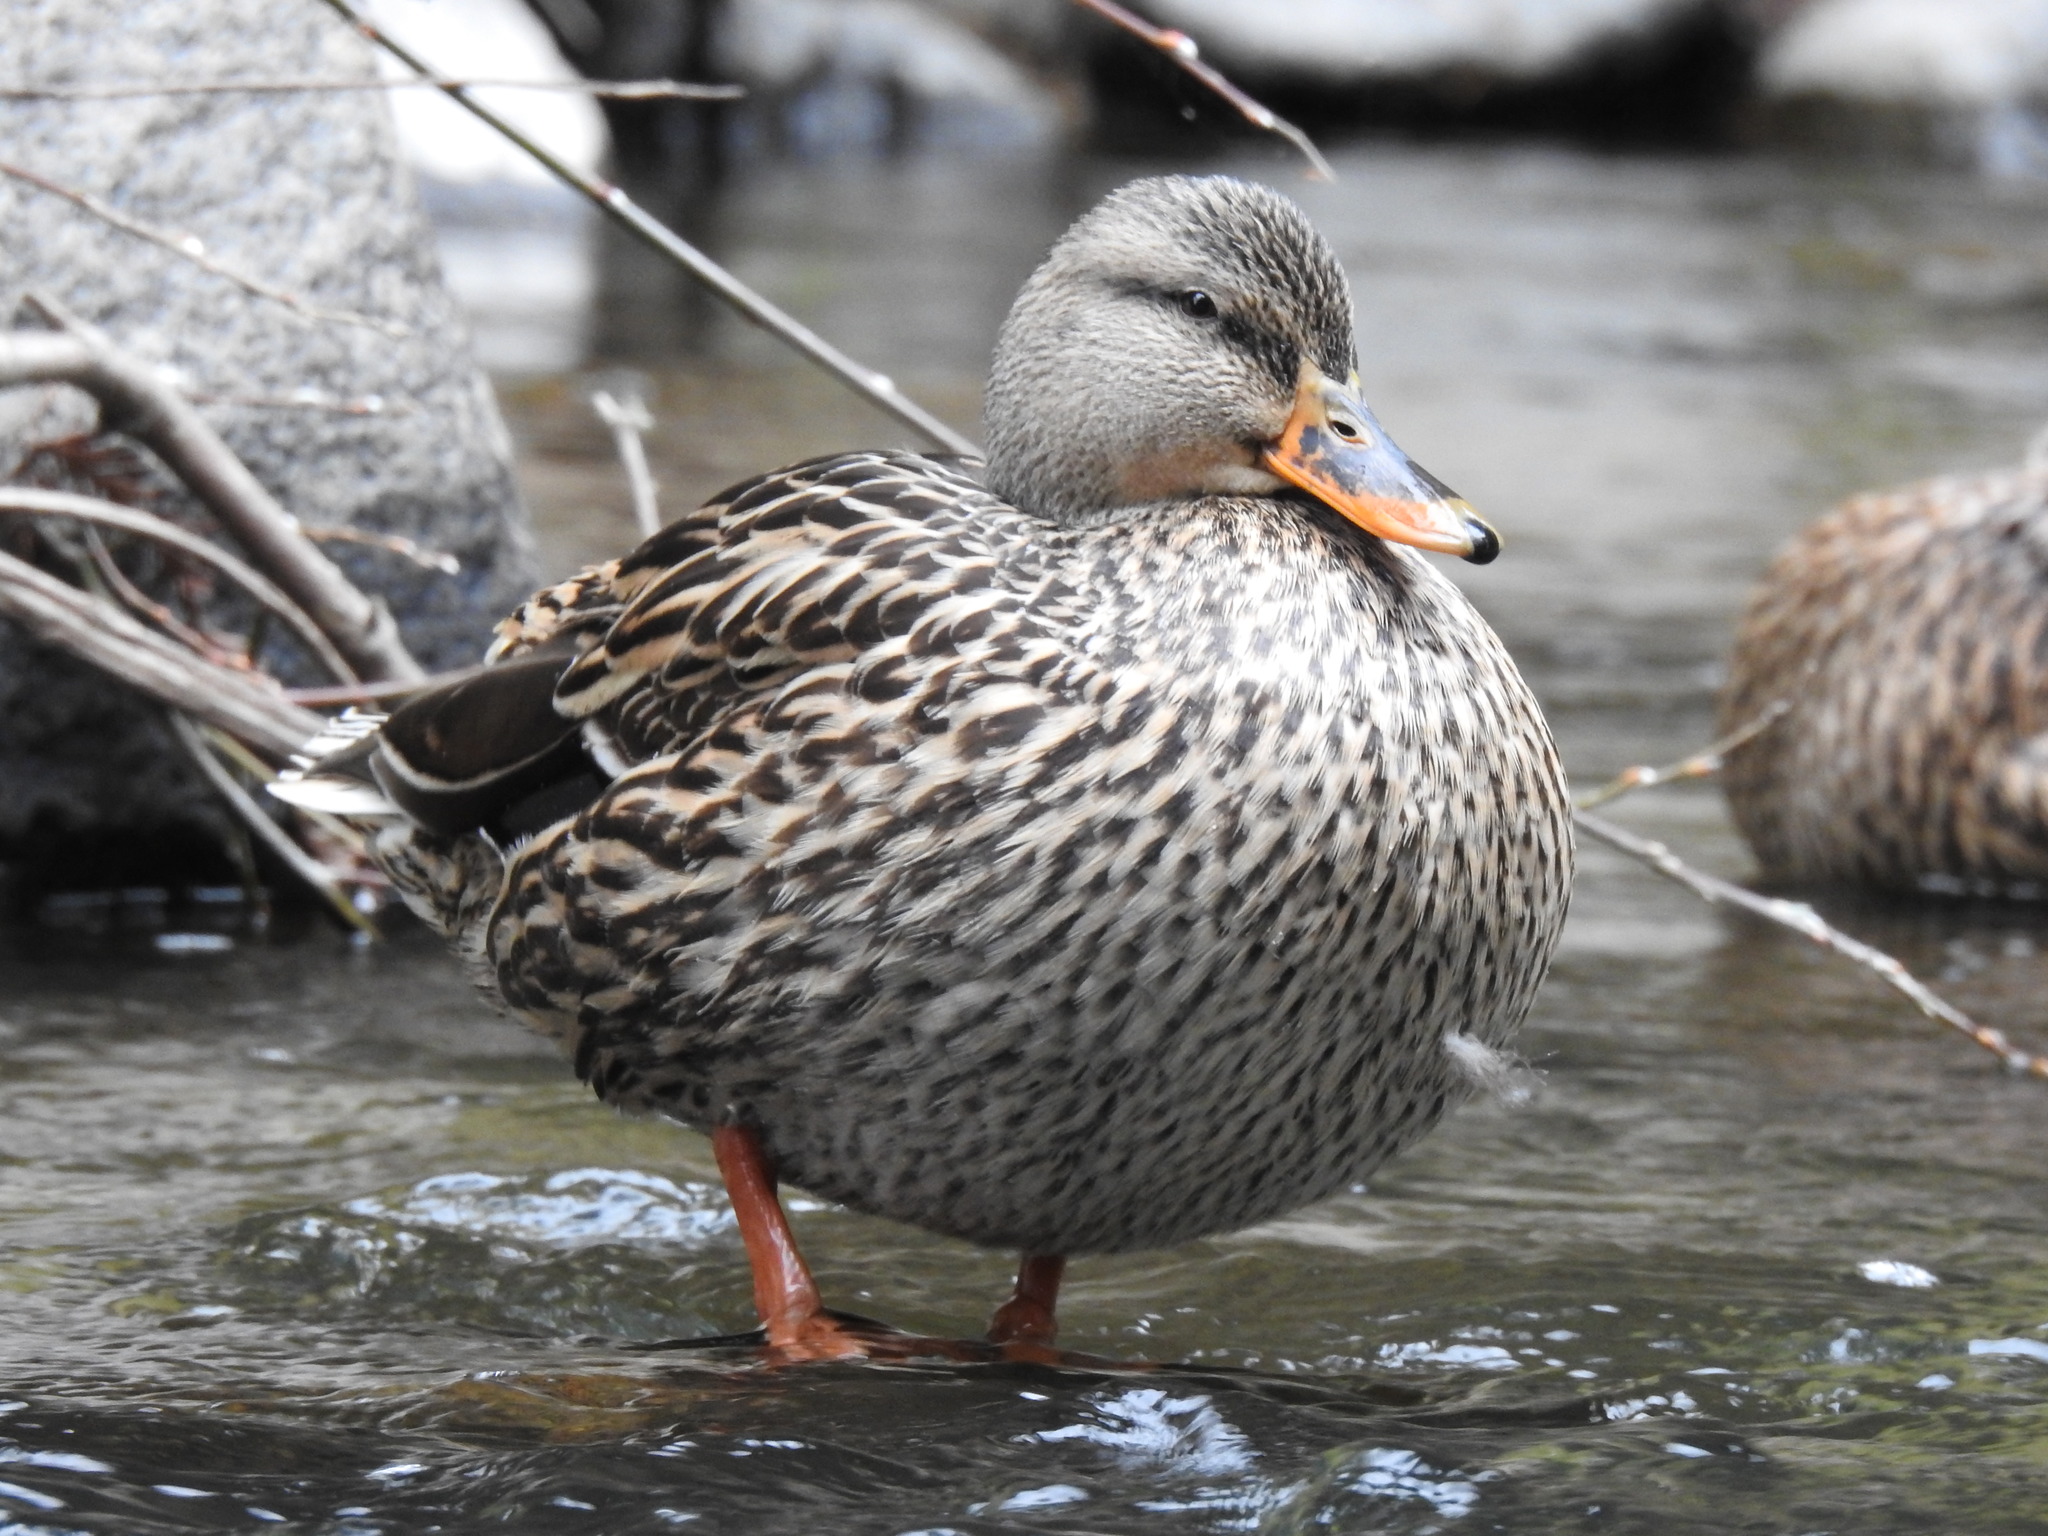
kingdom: Animalia
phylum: Chordata
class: Aves
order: Anseriformes
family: Anatidae
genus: Anas
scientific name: Anas platyrhynchos
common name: Mallard
